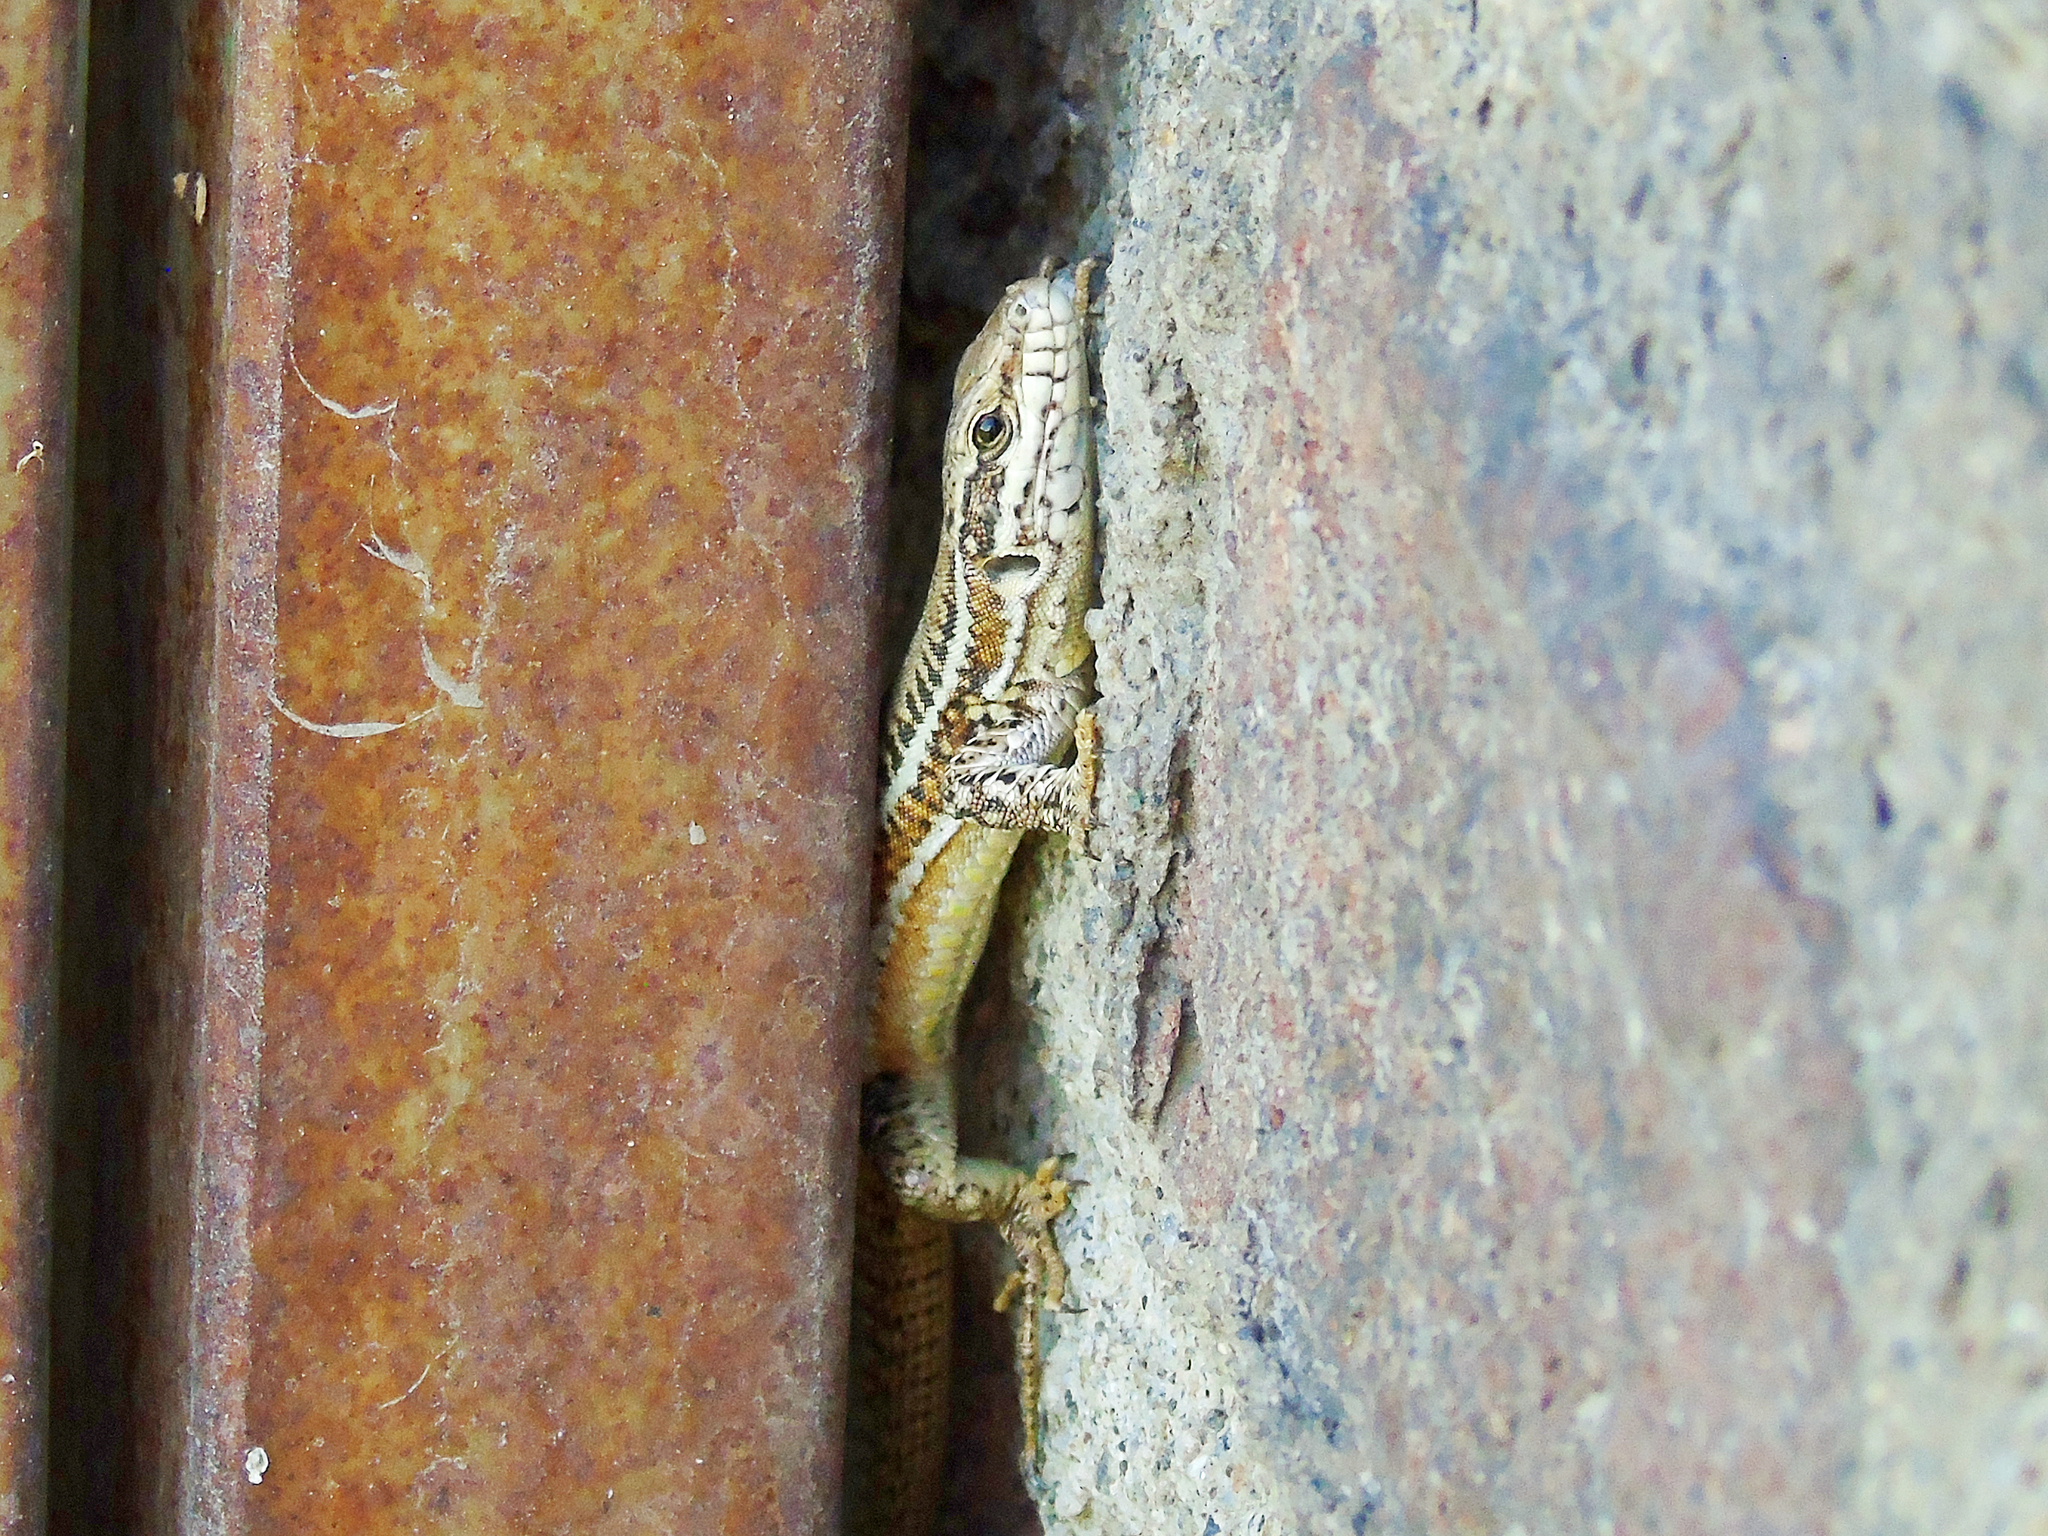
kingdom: Animalia
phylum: Chordata
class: Squamata
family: Lacertidae
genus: Podarcis
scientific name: Podarcis erhardii
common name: Erhard's wall lizard
